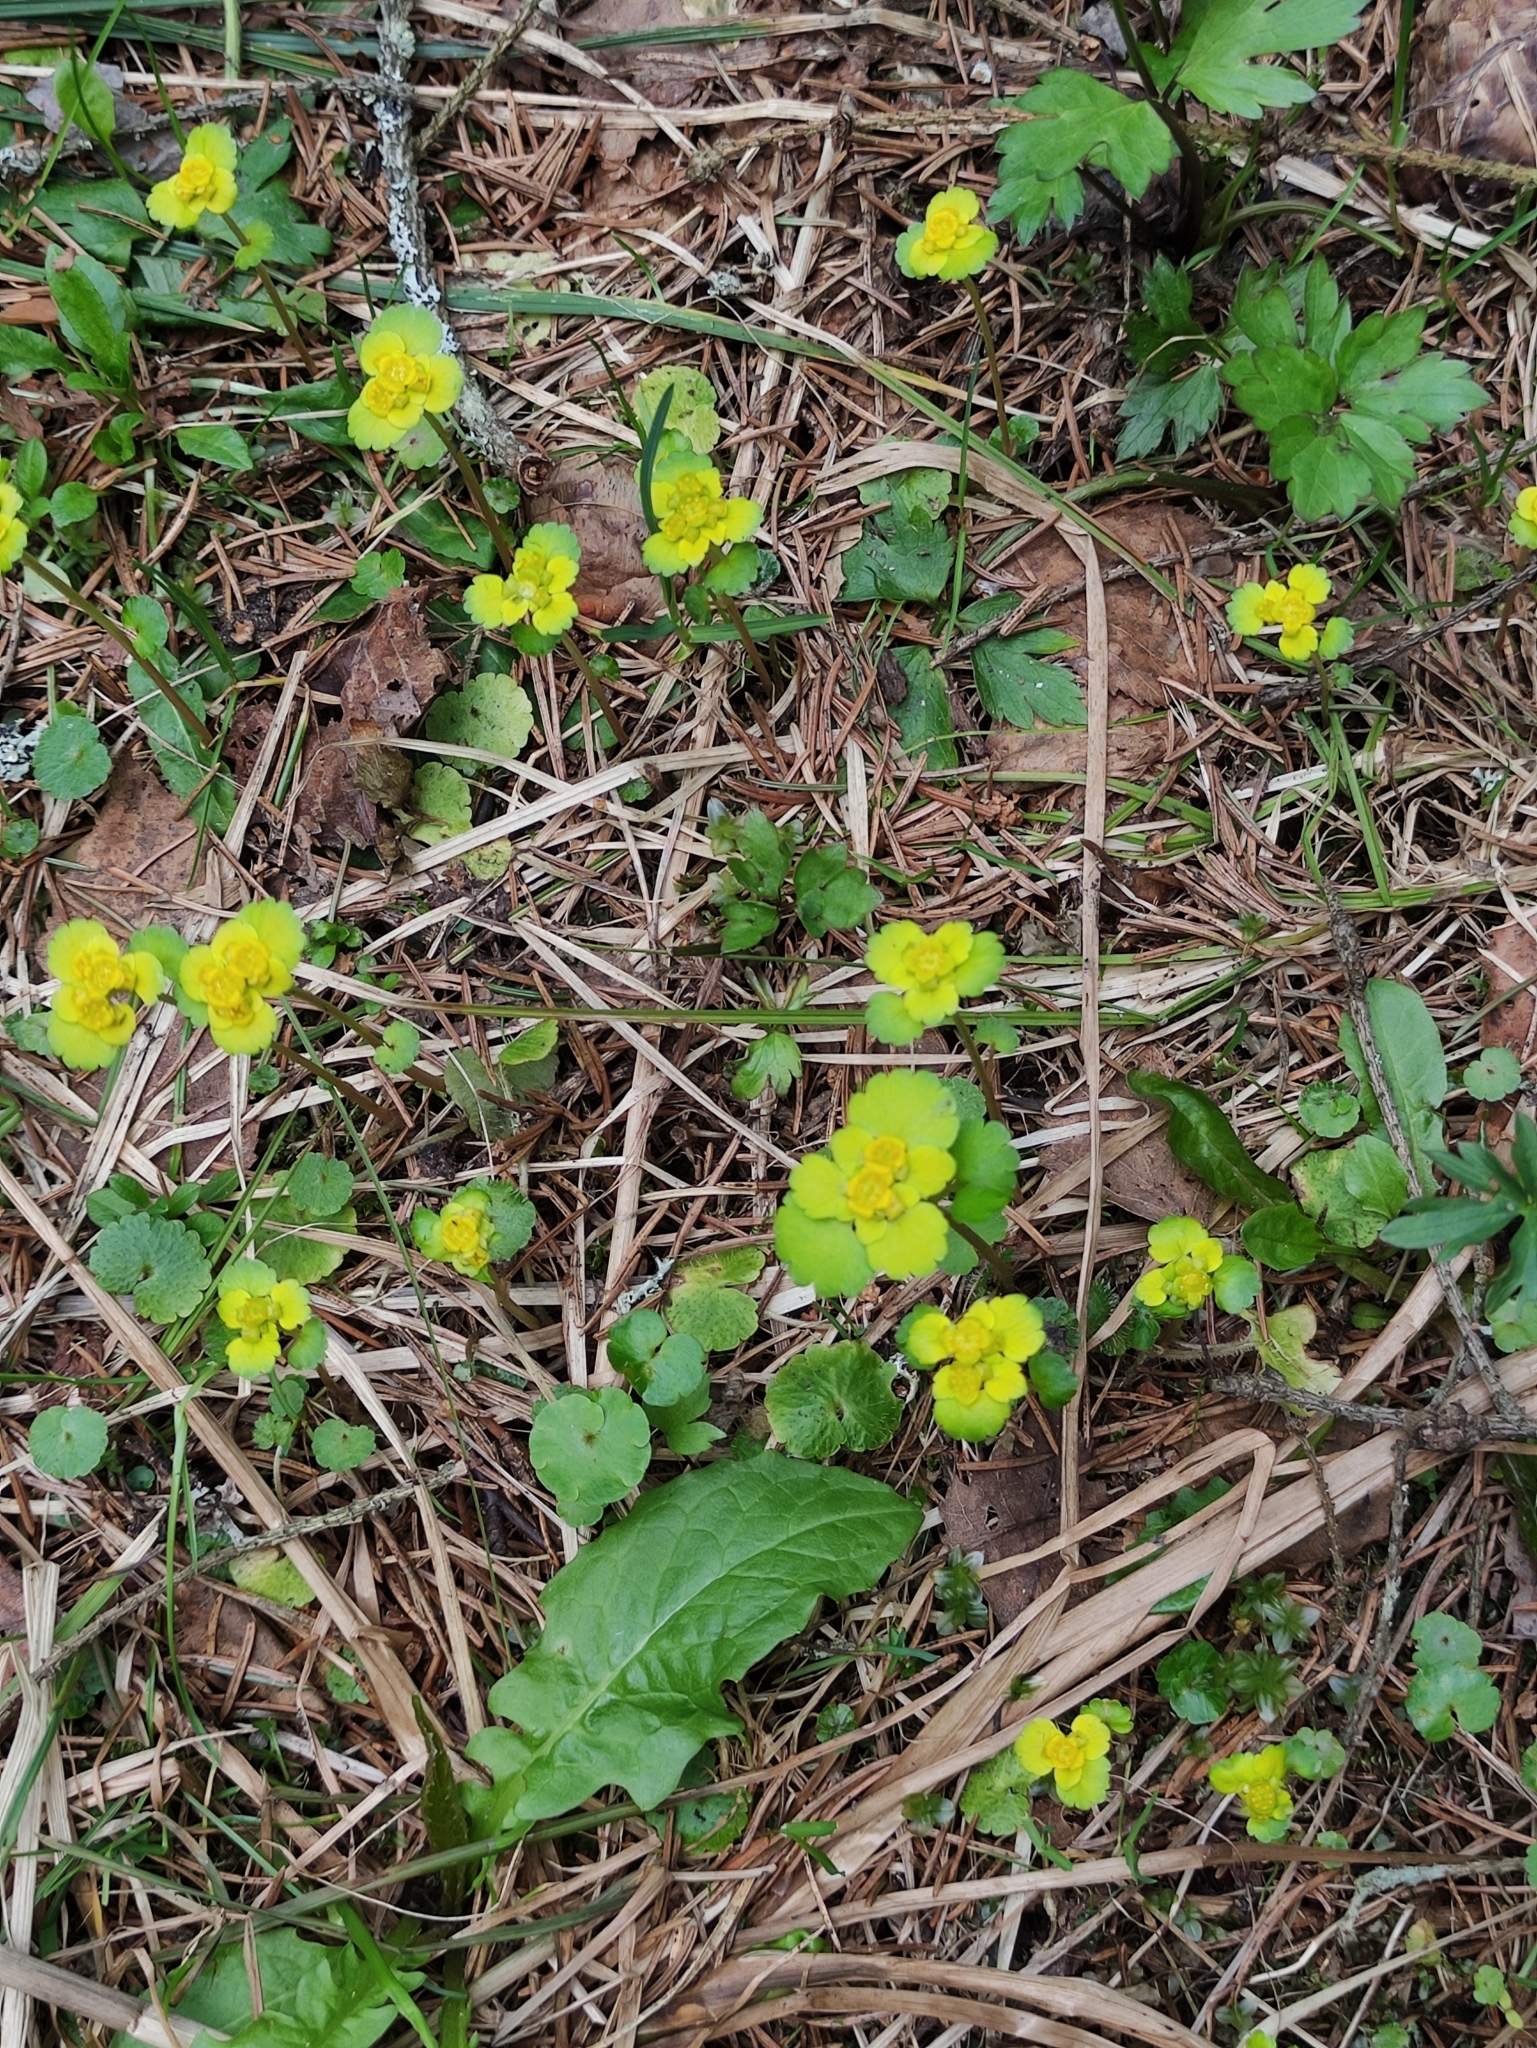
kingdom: Plantae
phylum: Tracheophyta
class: Magnoliopsida
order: Saxifragales
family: Saxifragaceae
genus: Chrysosplenium
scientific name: Chrysosplenium alternifolium
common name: Alternate-leaved golden-saxifrage
